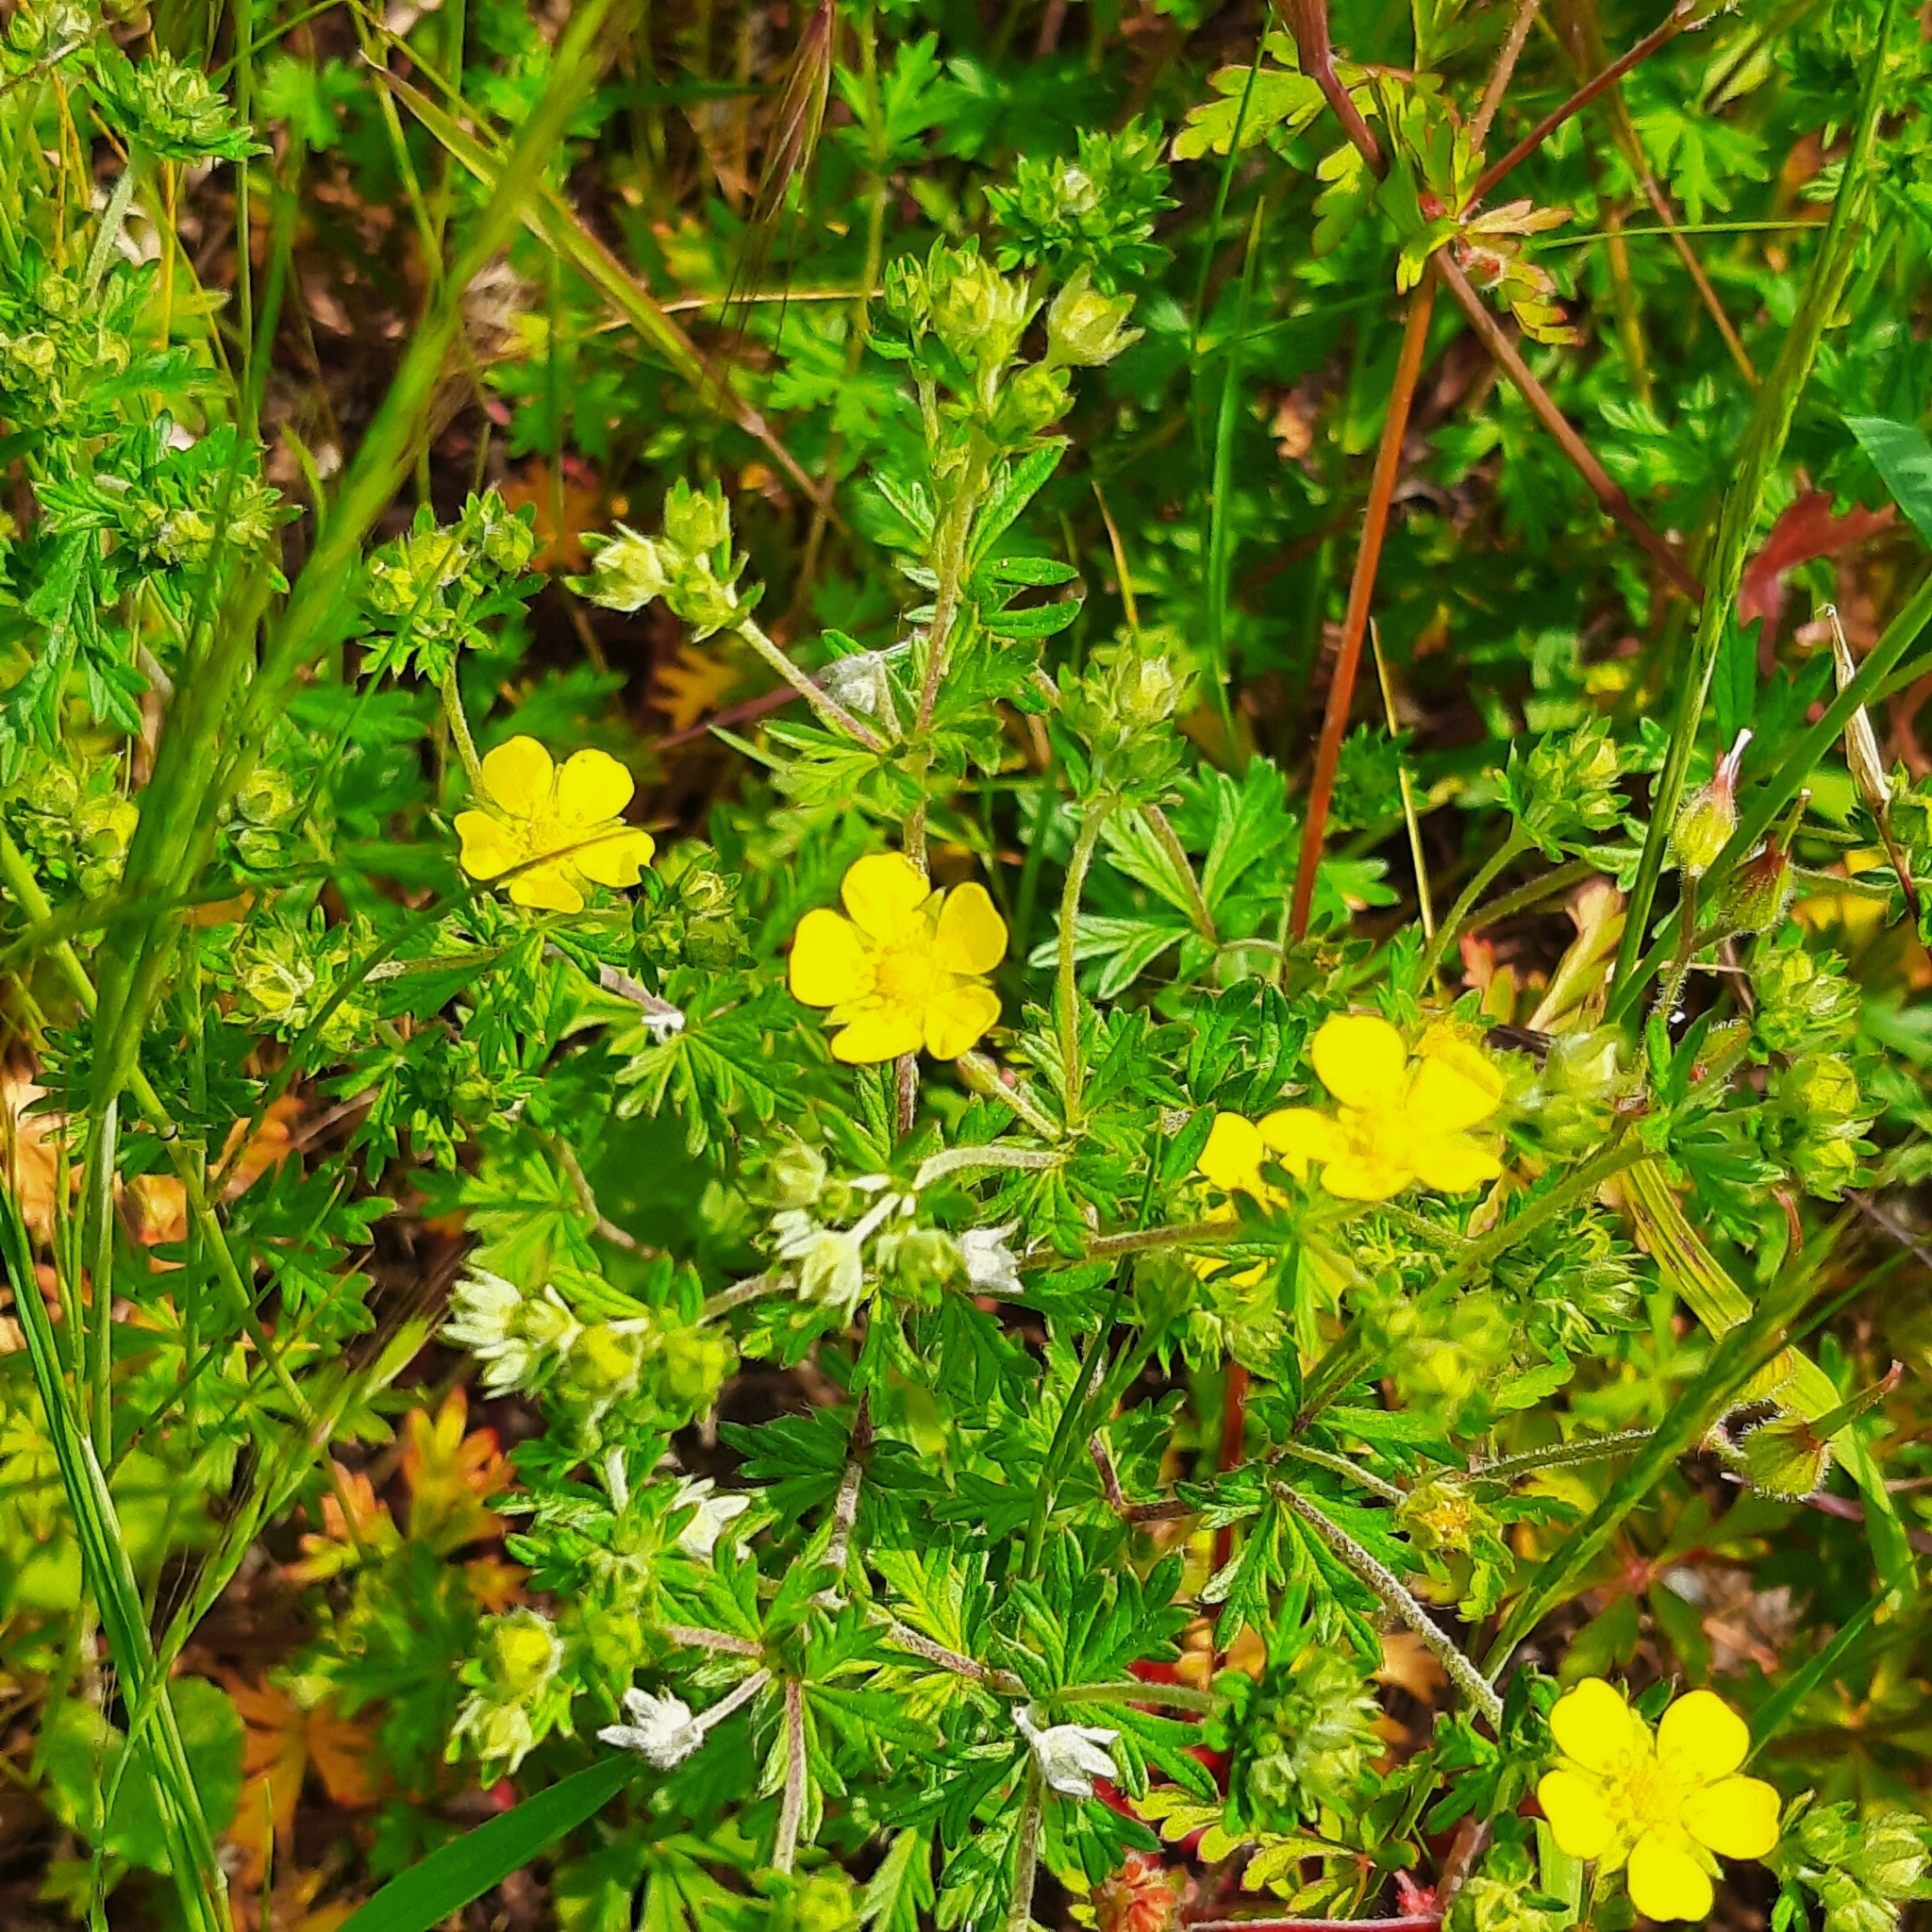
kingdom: Plantae
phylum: Tracheophyta
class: Magnoliopsida
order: Rosales
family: Rosaceae
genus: Potentilla
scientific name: Potentilla argentea
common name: Hoary cinquefoil
